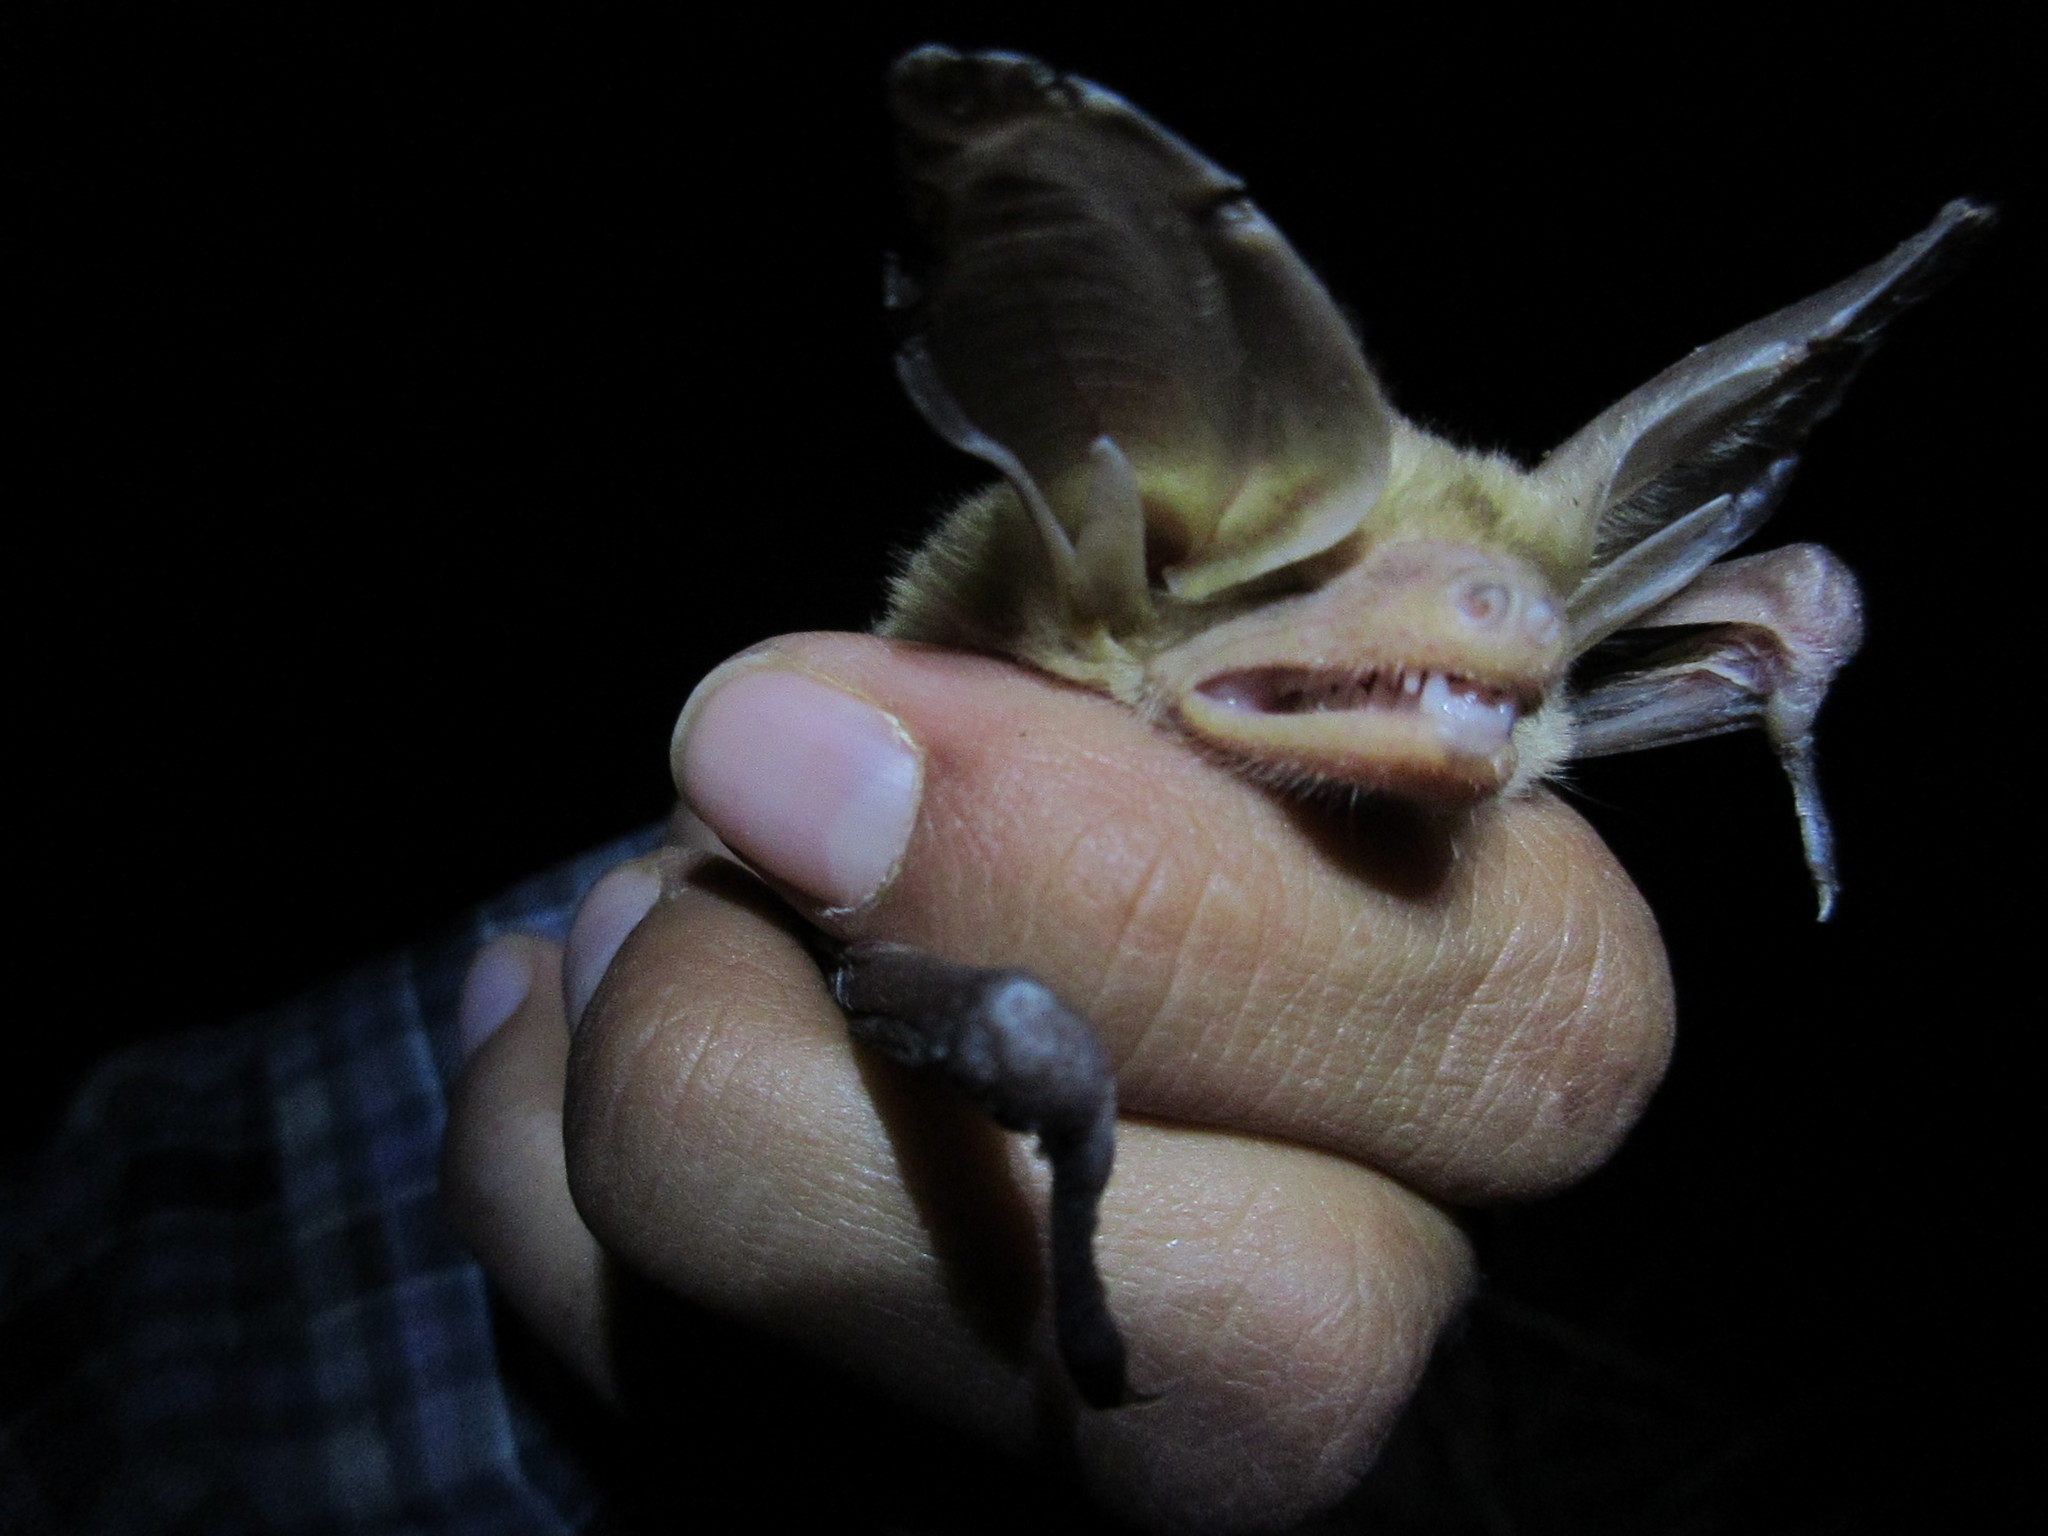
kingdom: Animalia
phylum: Chordata
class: Mammalia
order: Chiroptera
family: Vespertilionidae
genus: Antrozous
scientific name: Antrozous pallidus
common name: Pallid bat
